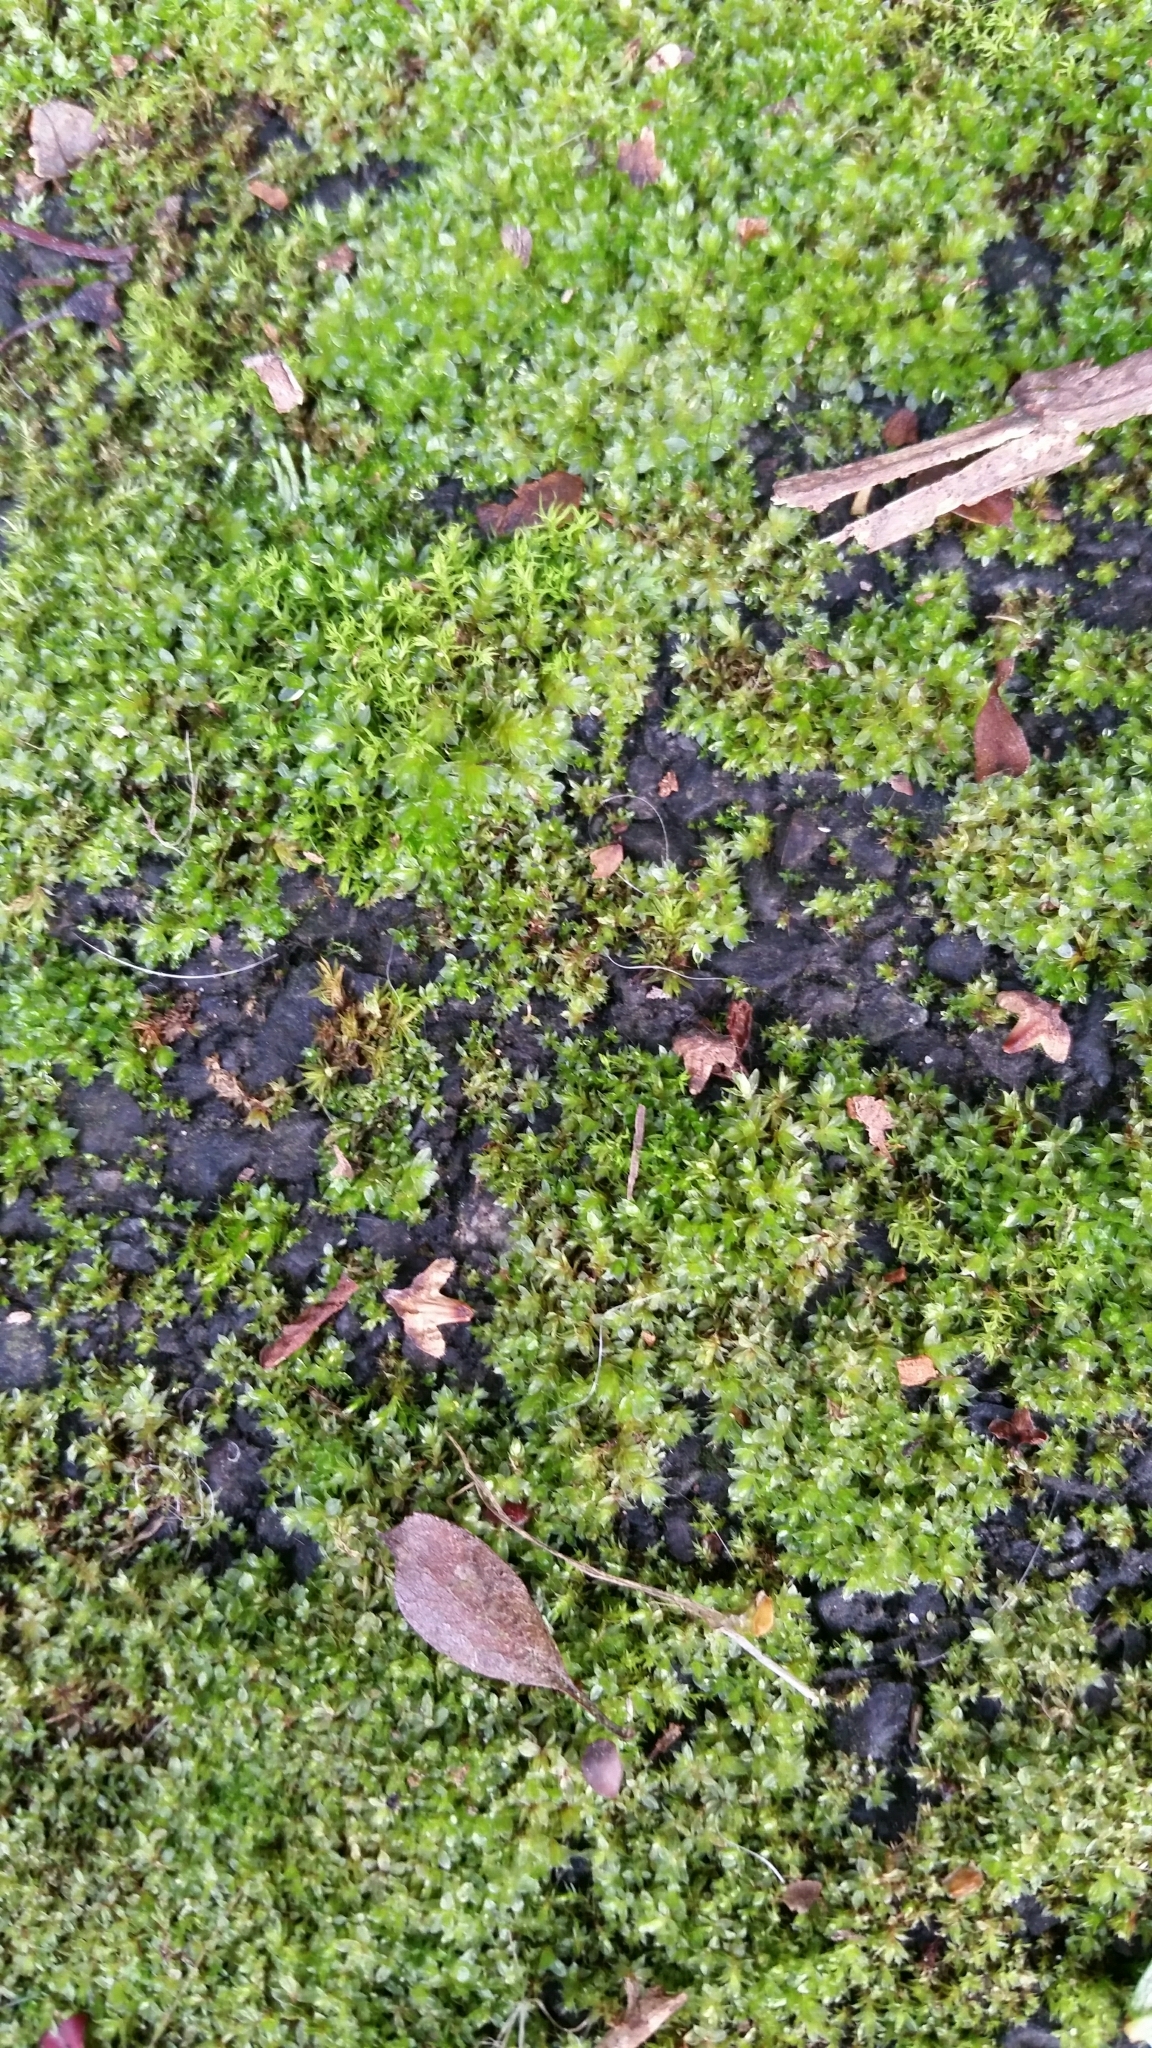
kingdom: Plantae
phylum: Bryophyta
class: Bryopsida
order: Bryales
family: Bryaceae
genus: Rosulabryum
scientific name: Rosulabryum capillare
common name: Capillary thread-moss
